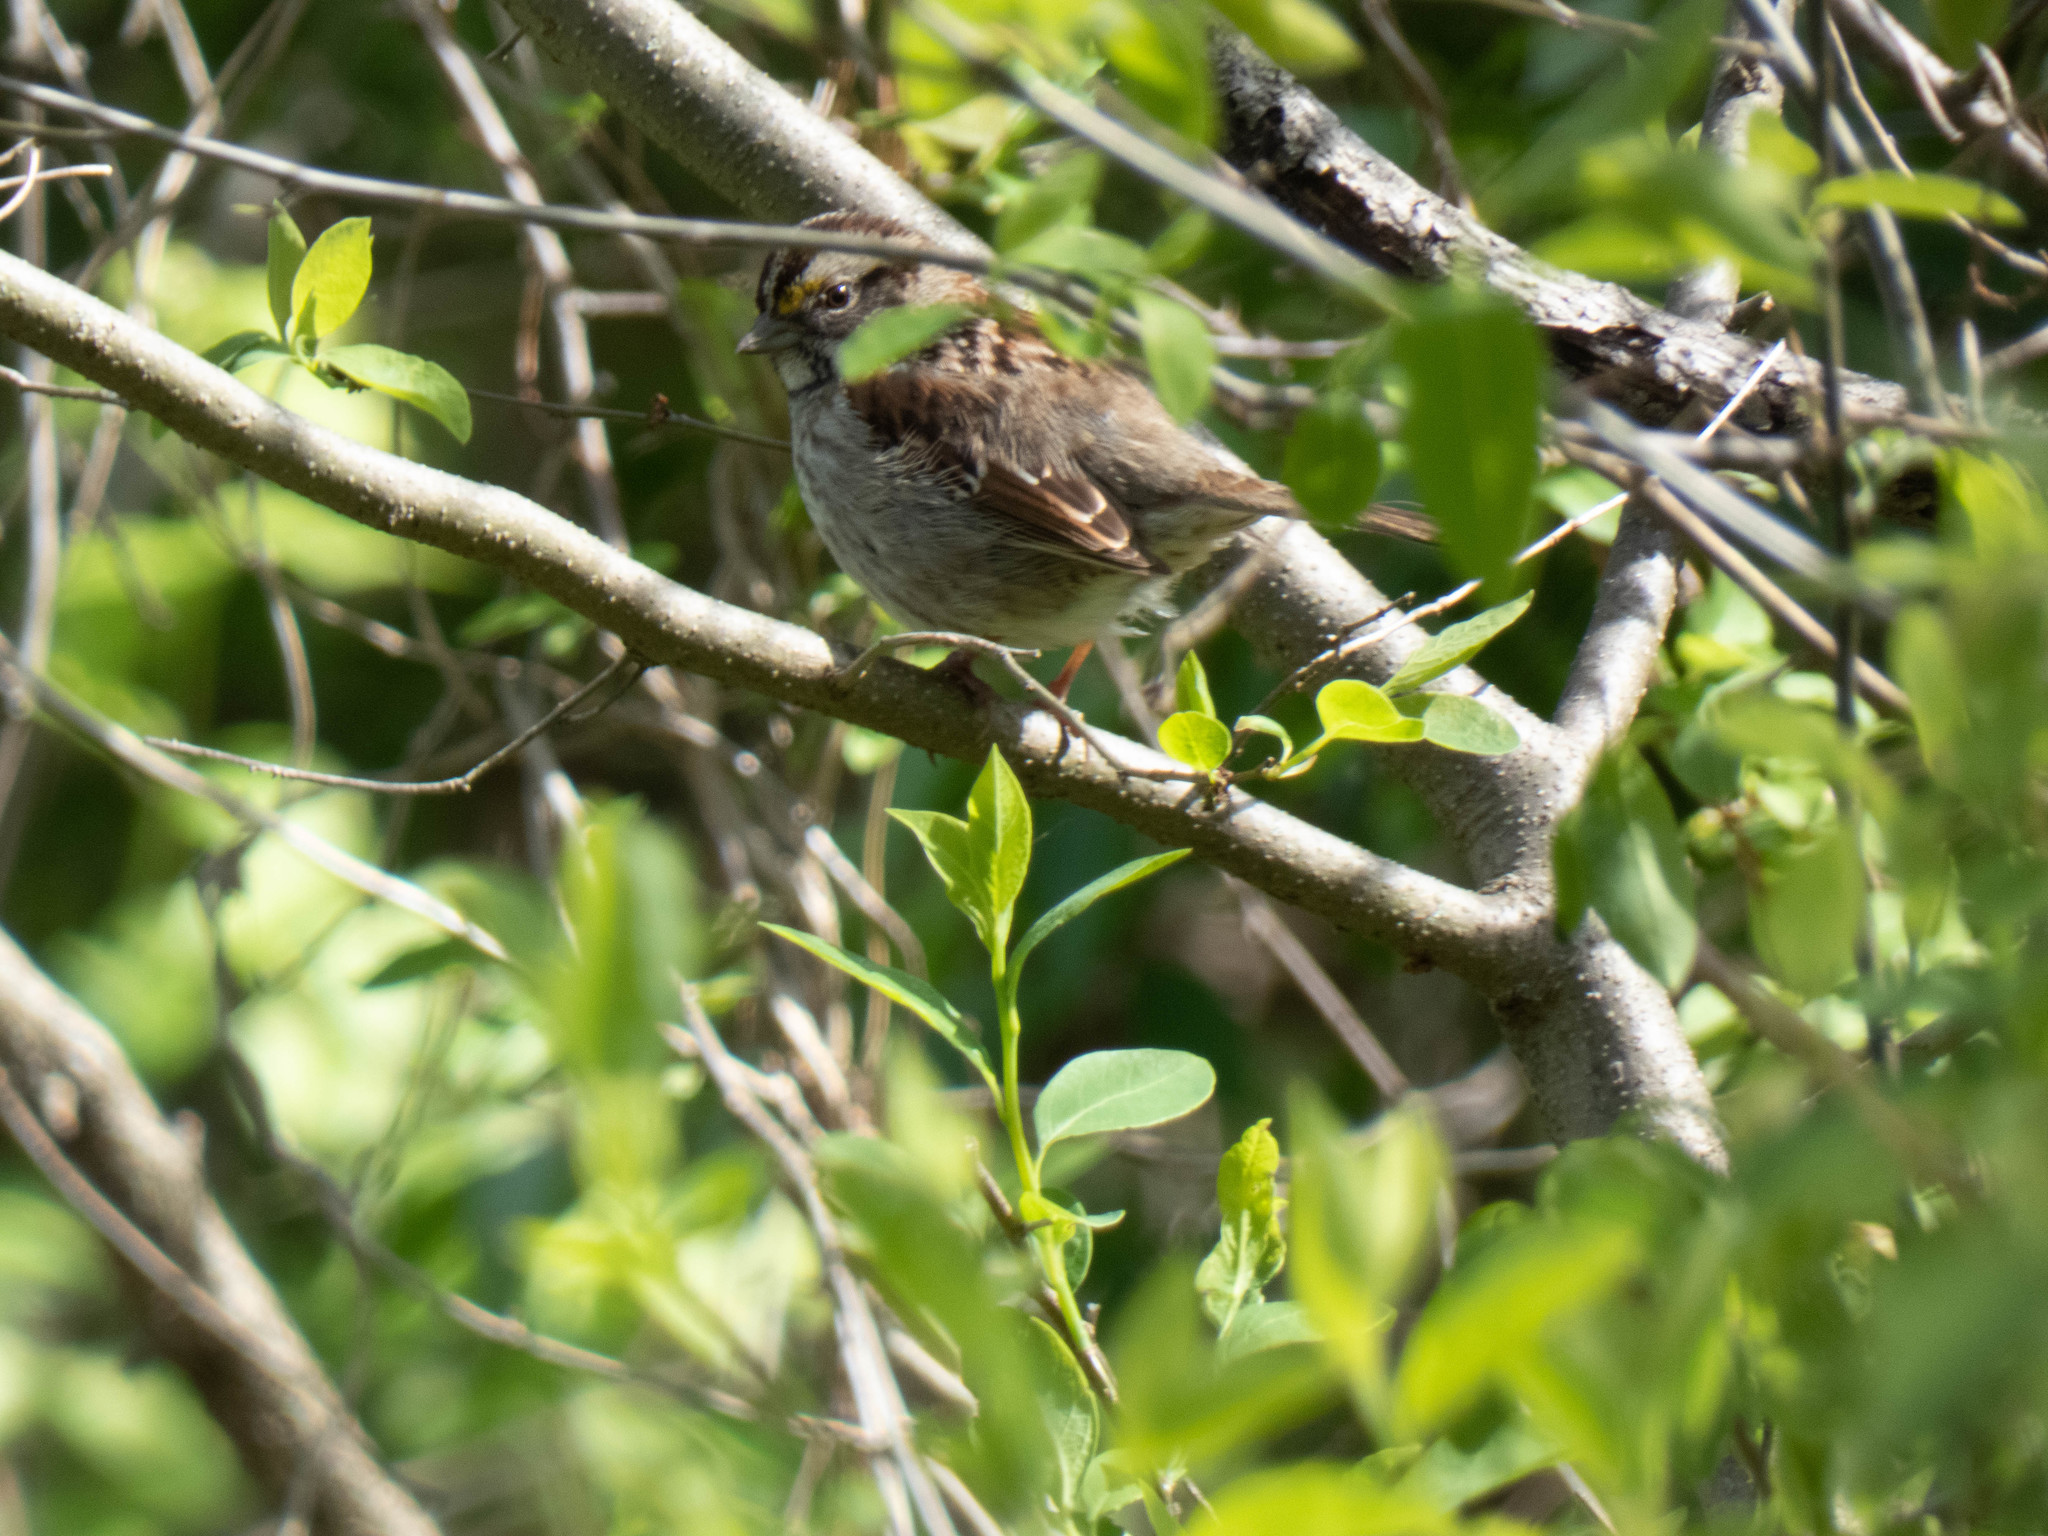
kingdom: Animalia
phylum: Chordata
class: Aves
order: Passeriformes
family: Passerellidae
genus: Zonotrichia
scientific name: Zonotrichia albicollis
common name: White-throated sparrow
